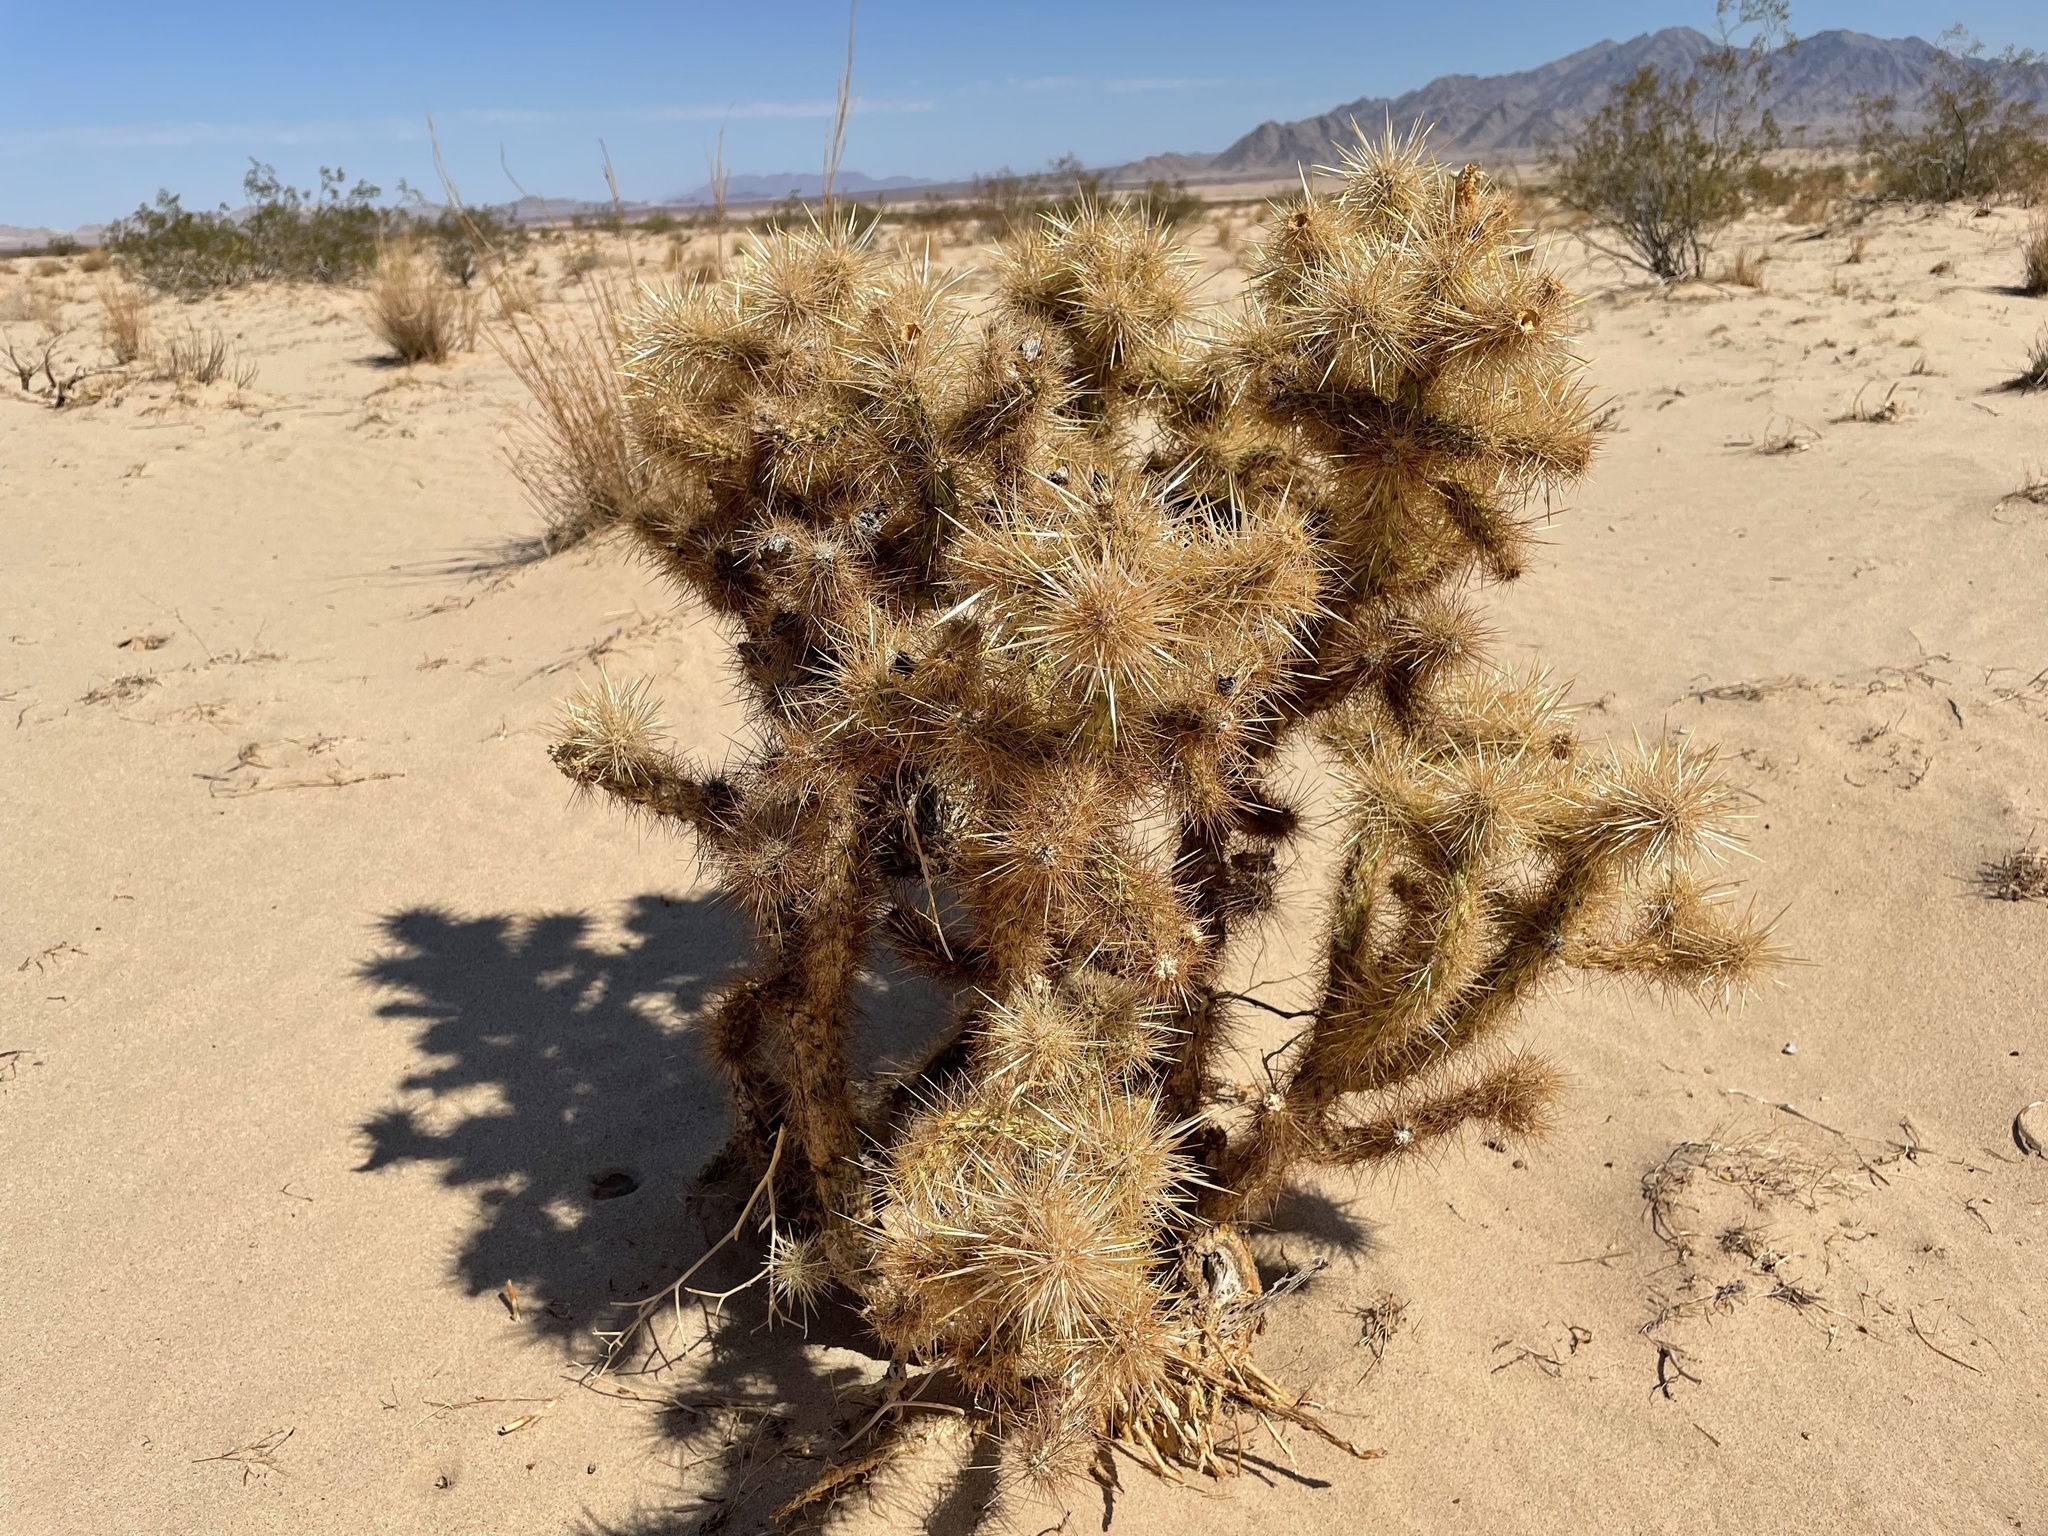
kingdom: Plantae
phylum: Tracheophyta
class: Magnoliopsida
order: Caryophyllales
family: Cactaceae
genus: Cylindropuntia
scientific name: Cylindropuntia echinocarpa
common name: Ground cholla
